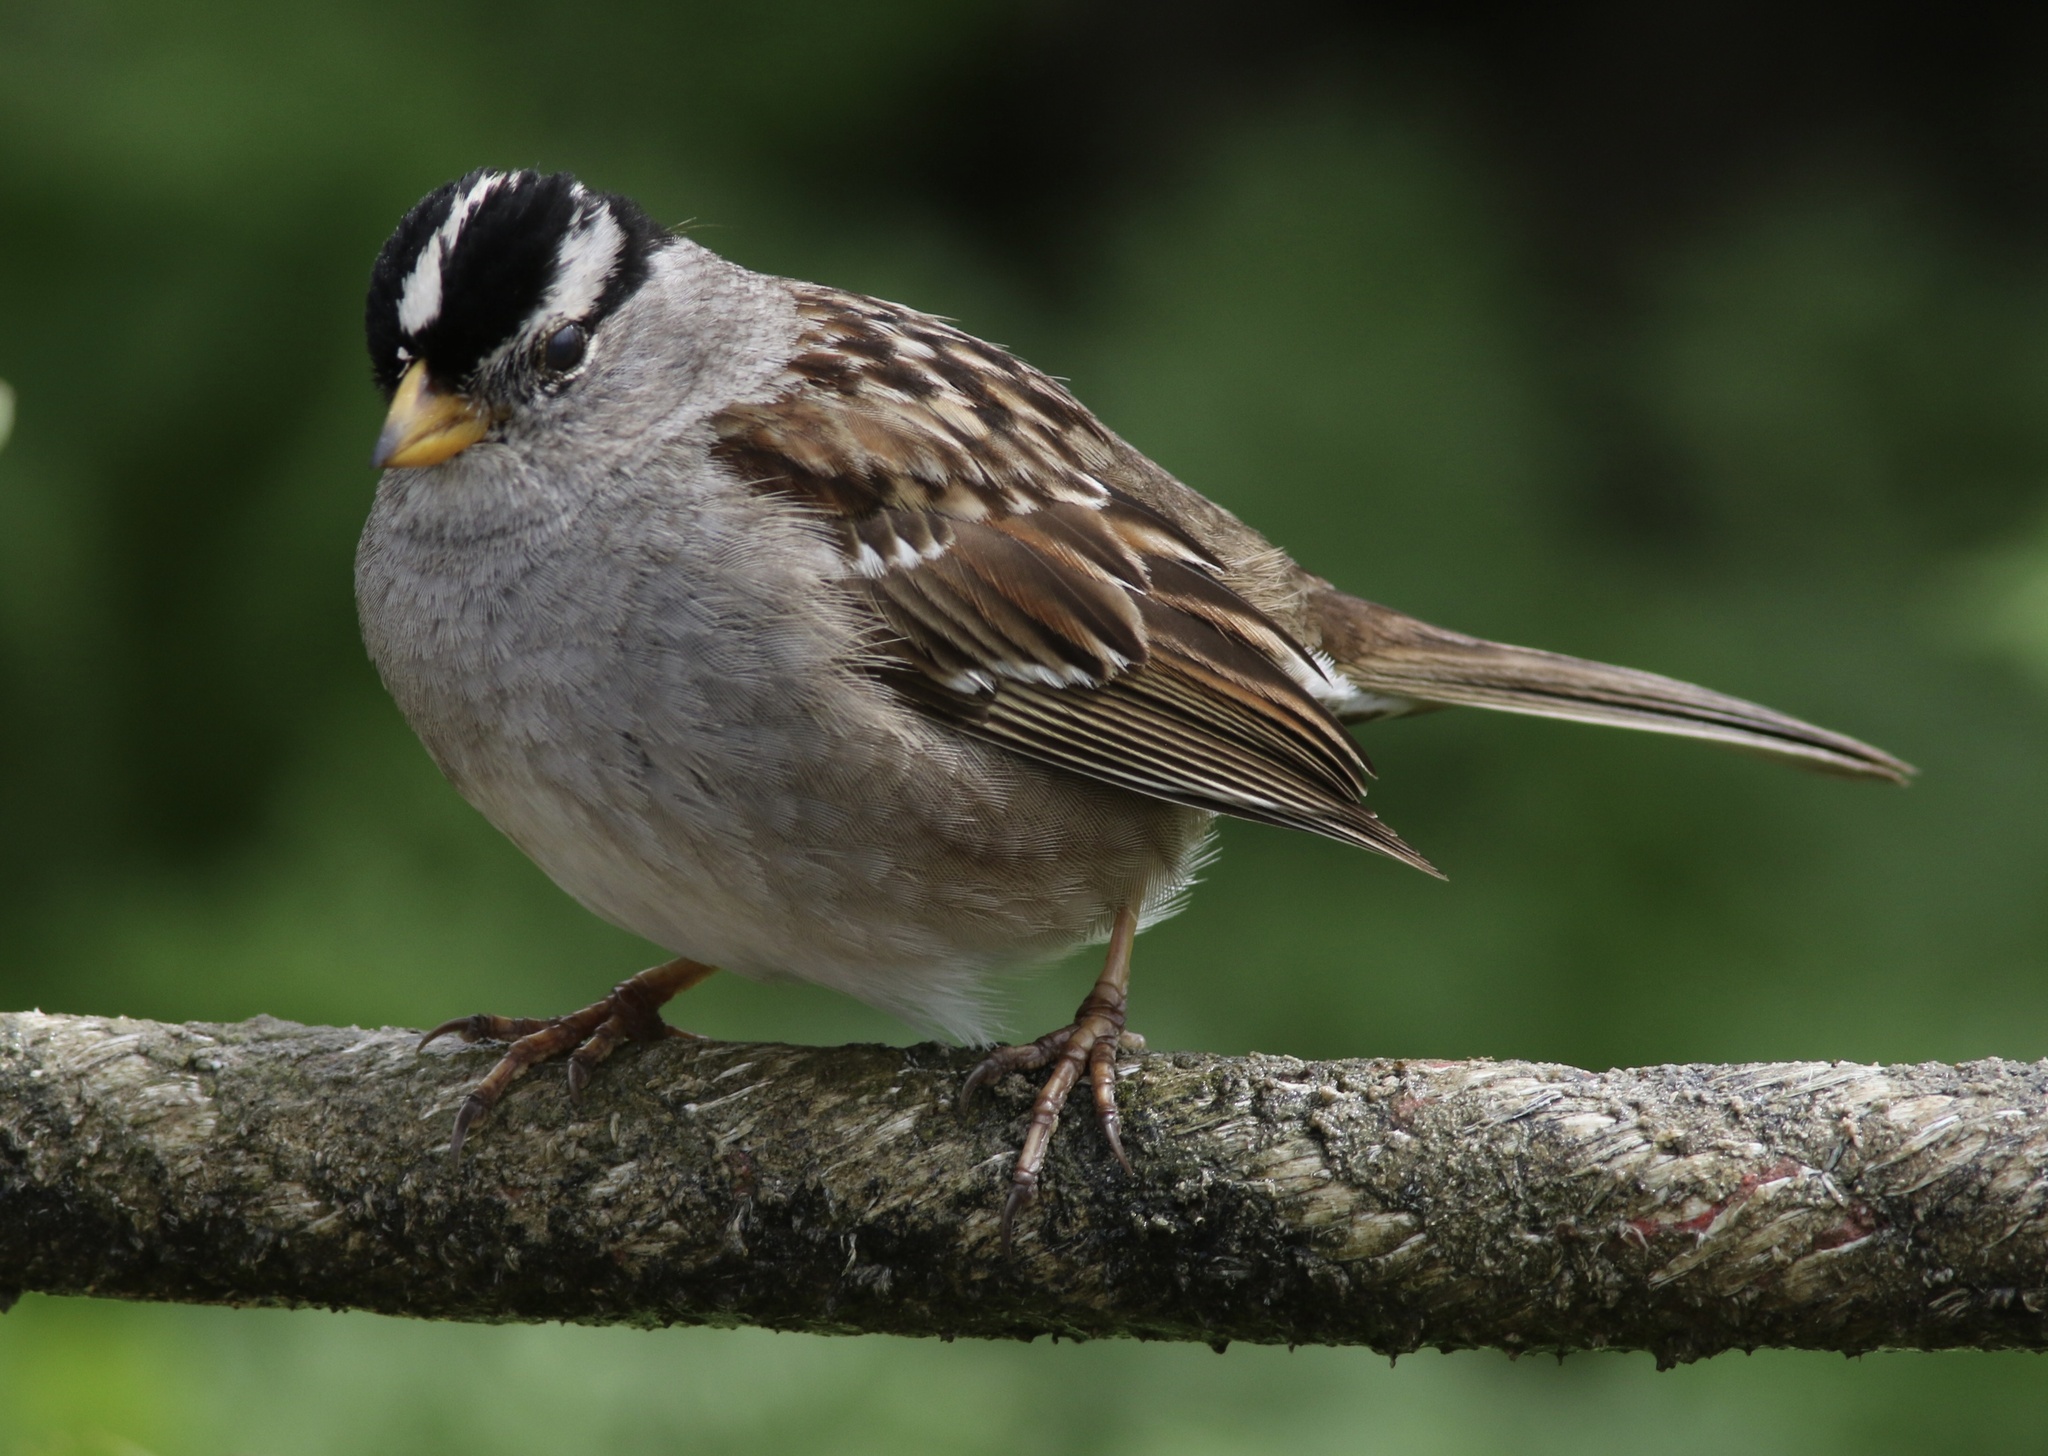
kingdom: Animalia
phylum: Chordata
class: Aves
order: Passeriformes
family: Passerellidae
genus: Zonotrichia
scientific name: Zonotrichia leucophrys
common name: White-crowned sparrow
